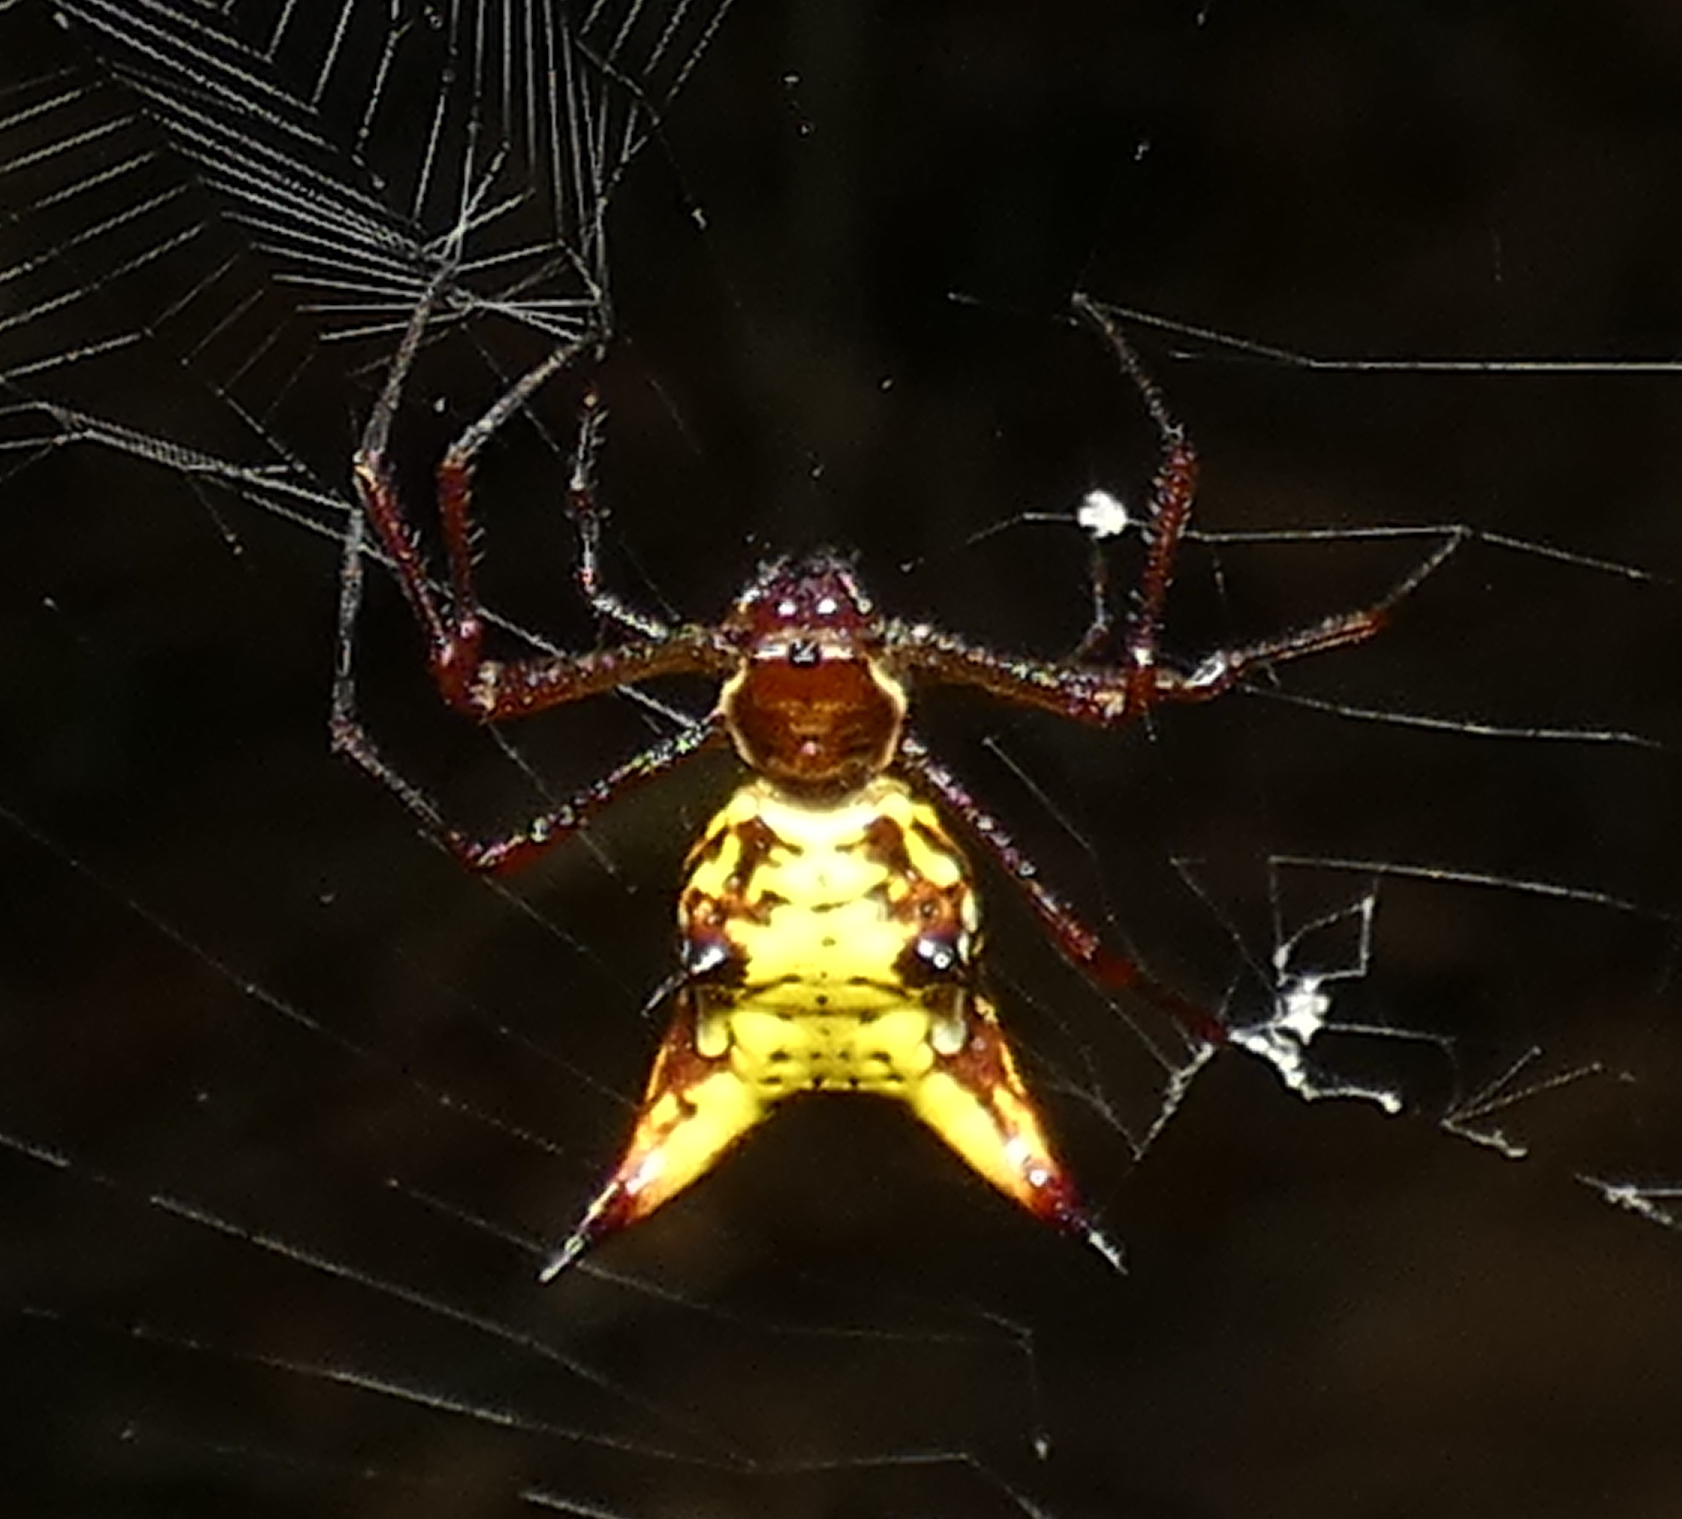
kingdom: Animalia
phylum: Arthropoda
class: Arachnida
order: Araneae
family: Araneidae
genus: Micrathena
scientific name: Micrathena fissispina
